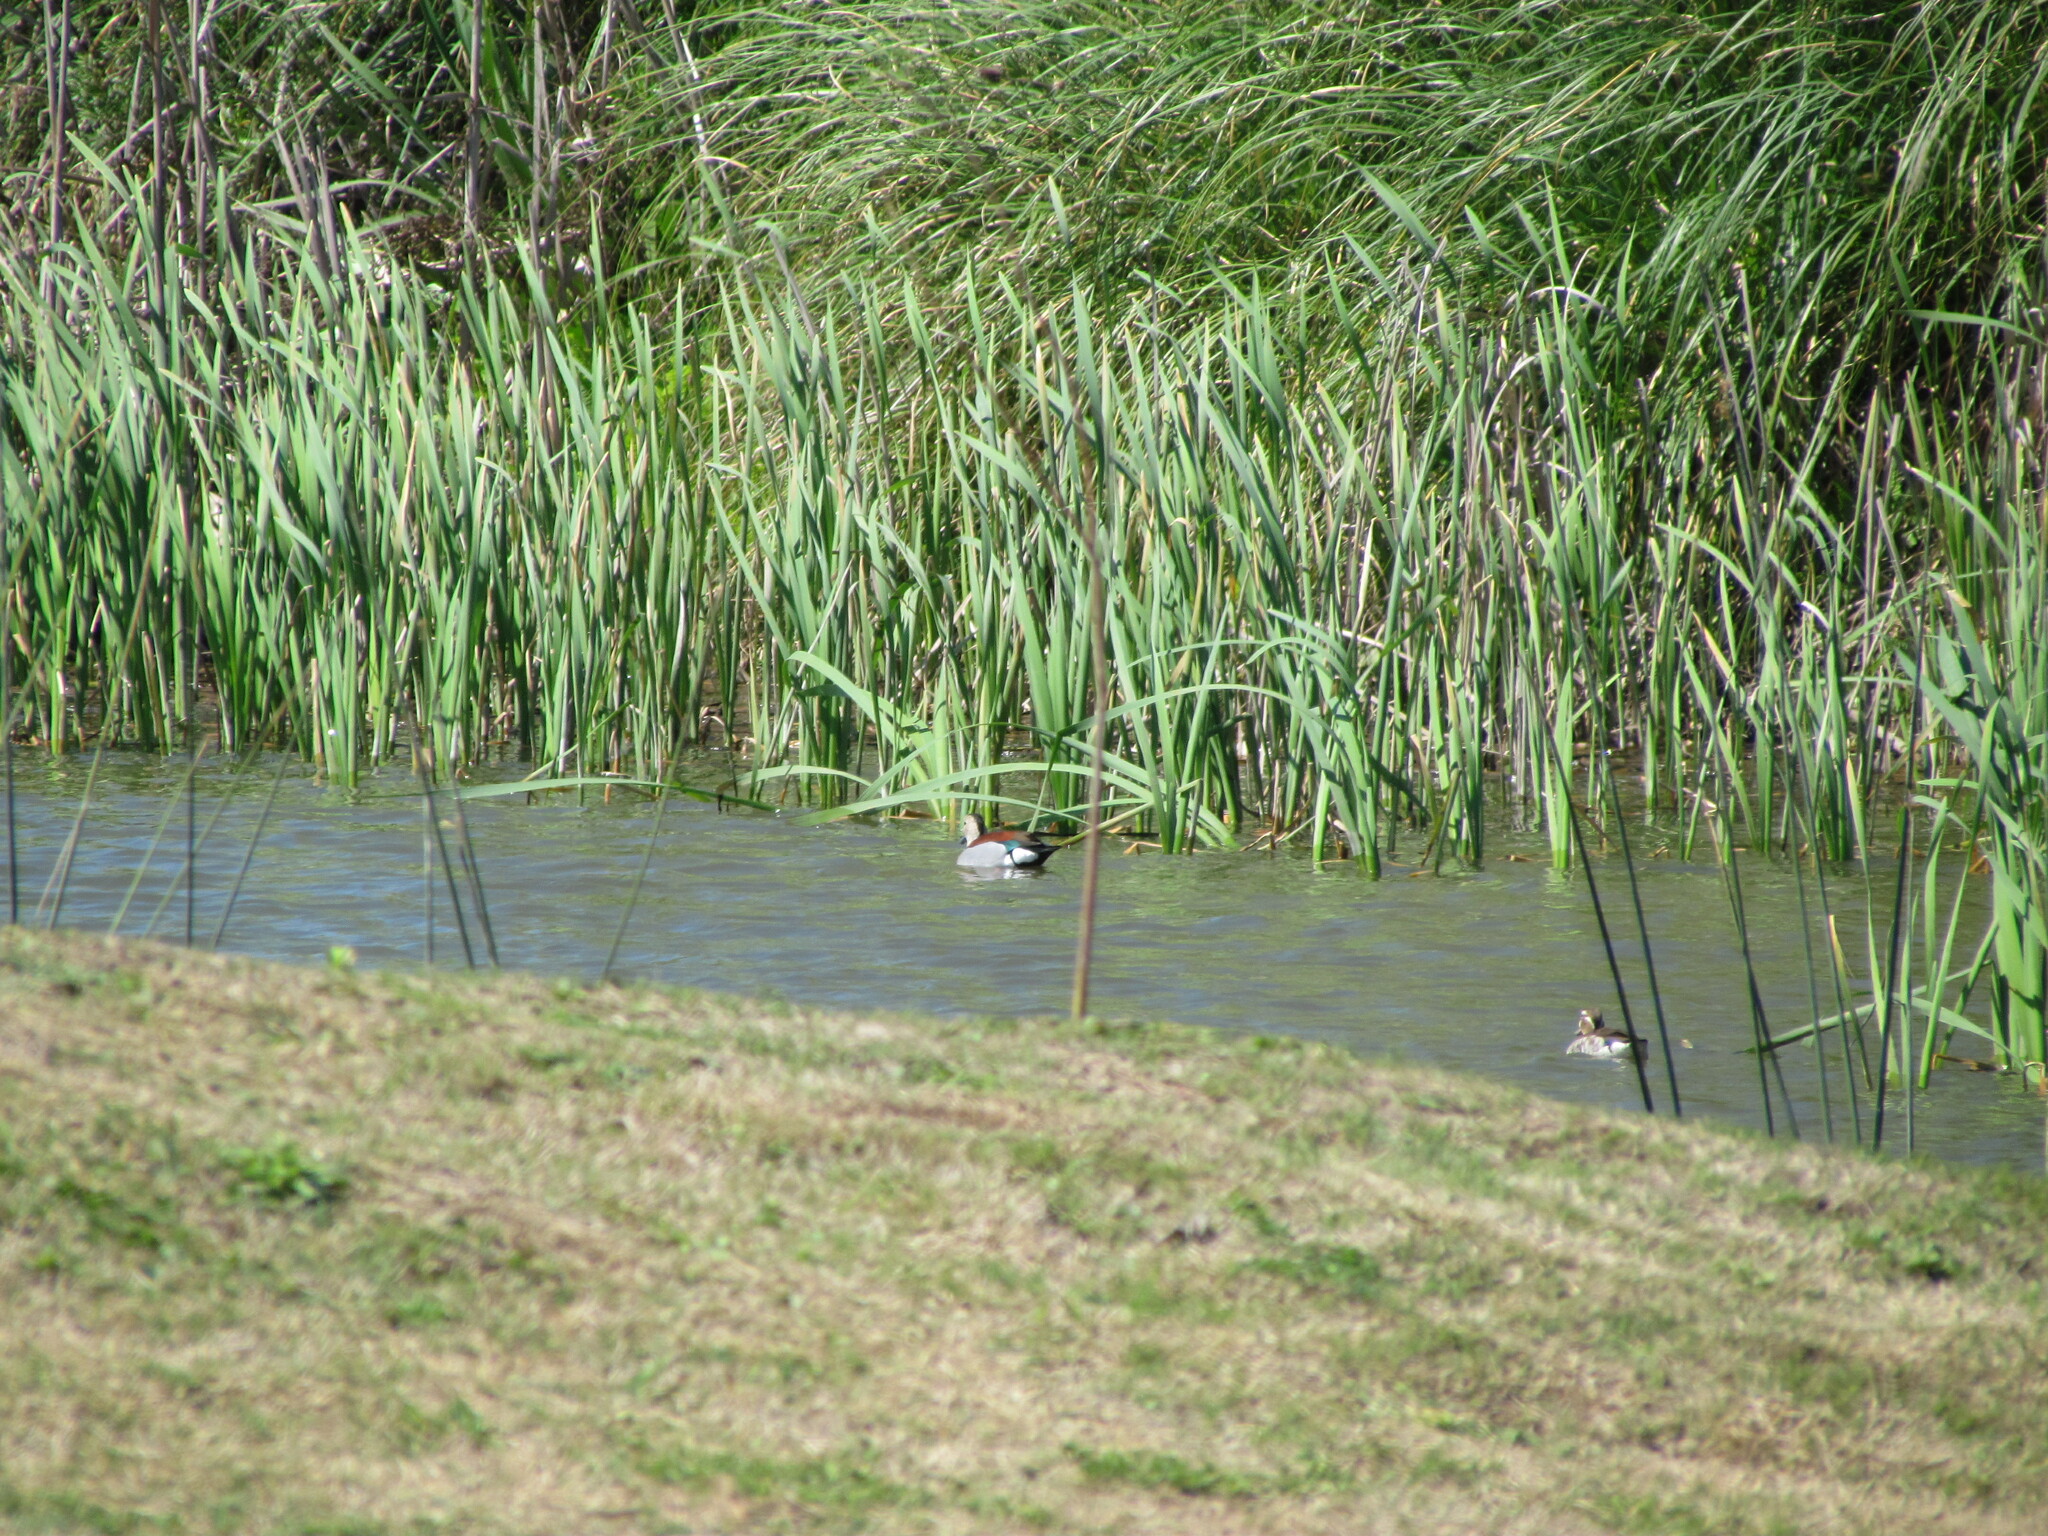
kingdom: Animalia
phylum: Chordata
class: Aves
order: Anseriformes
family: Anatidae
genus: Callonetta
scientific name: Callonetta leucophrys
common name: Ringed teal
